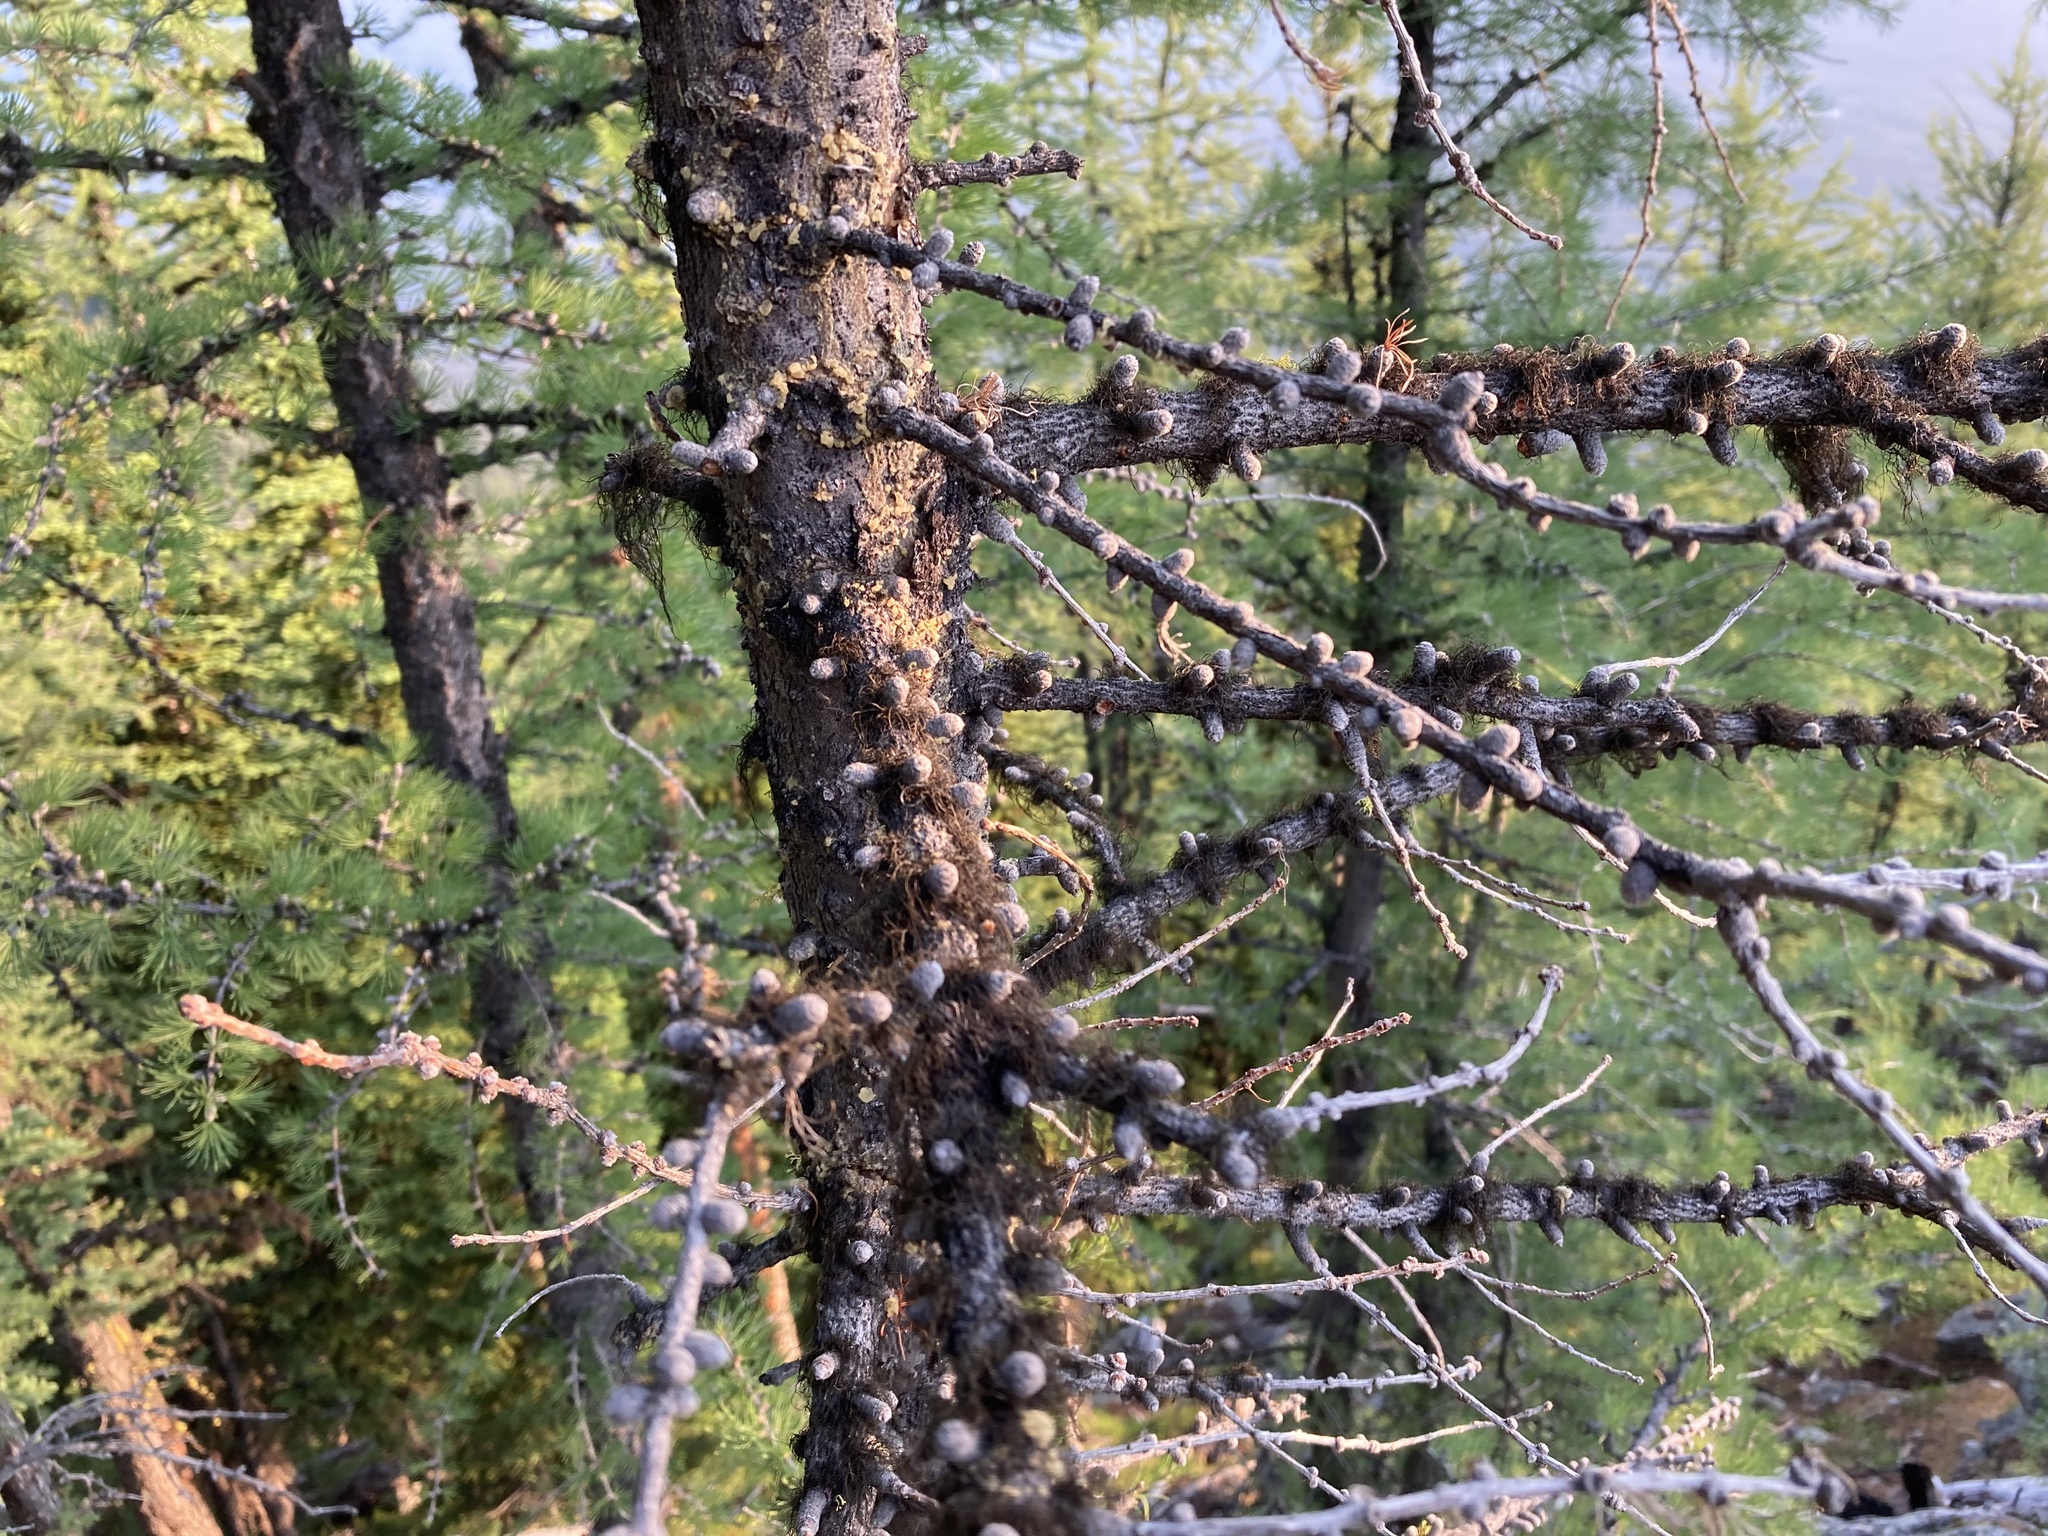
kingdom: Plantae
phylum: Tracheophyta
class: Pinopsida
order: Pinales
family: Pinaceae
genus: Larix
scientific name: Larix lyallii
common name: Alpine larch
